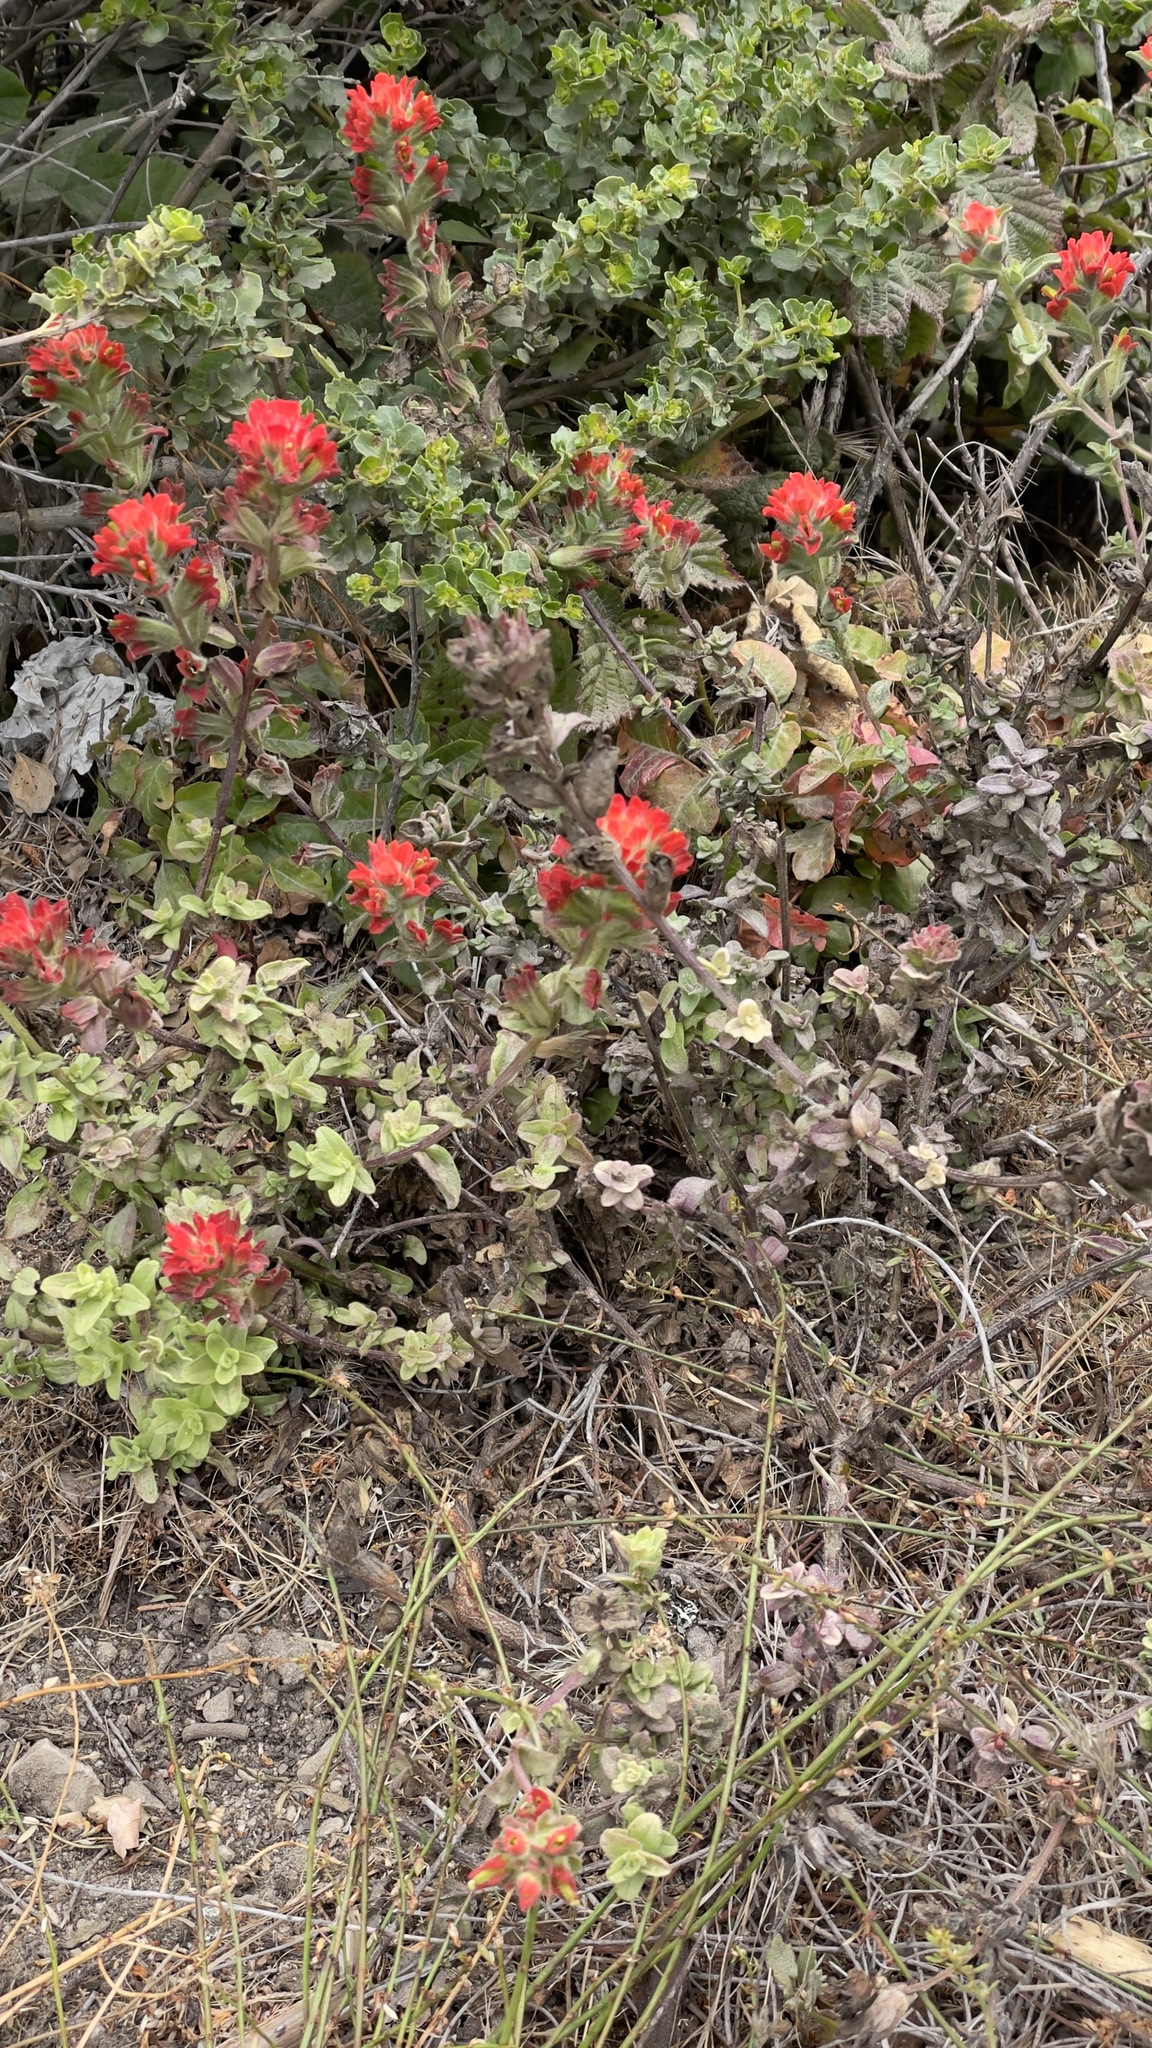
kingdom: Plantae
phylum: Tracheophyta
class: Magnoliopsida
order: Lamiales
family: Orobanchaceae
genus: Castilleja
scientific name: Castilleja affinis
